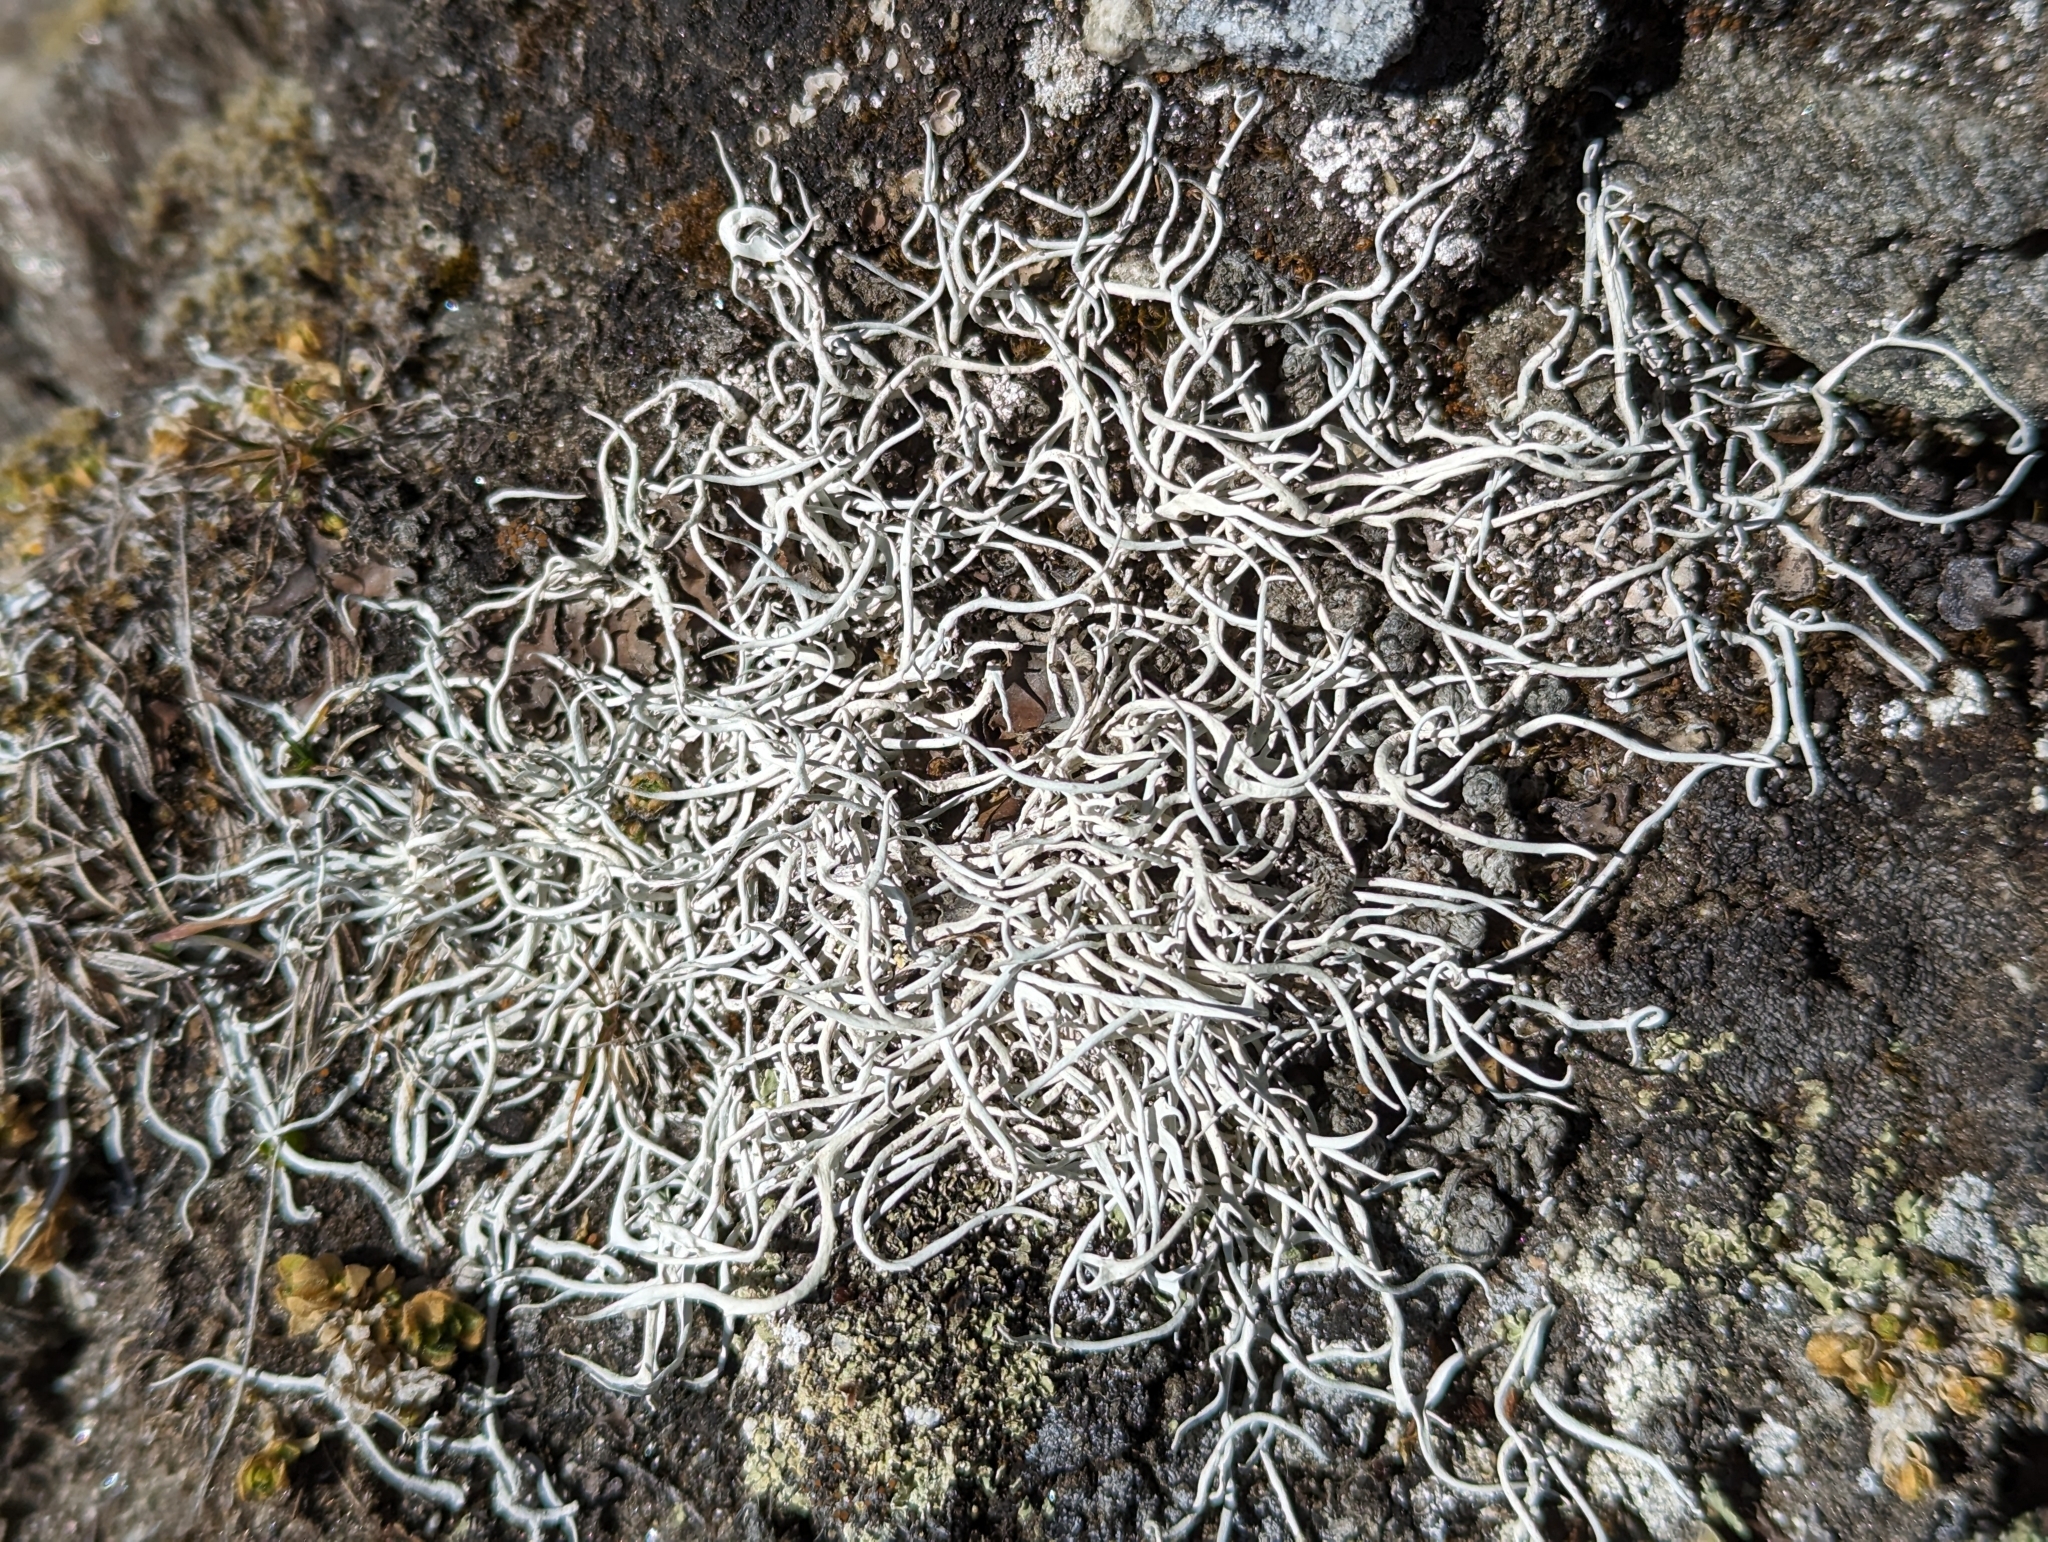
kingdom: Fungi
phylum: Ascomycota
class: Lecanoromycetes
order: Pertusariales
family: Icmadophilaceae
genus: Thamnolia
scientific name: Thamnolia vermicularis
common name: Whiteworm lichen
